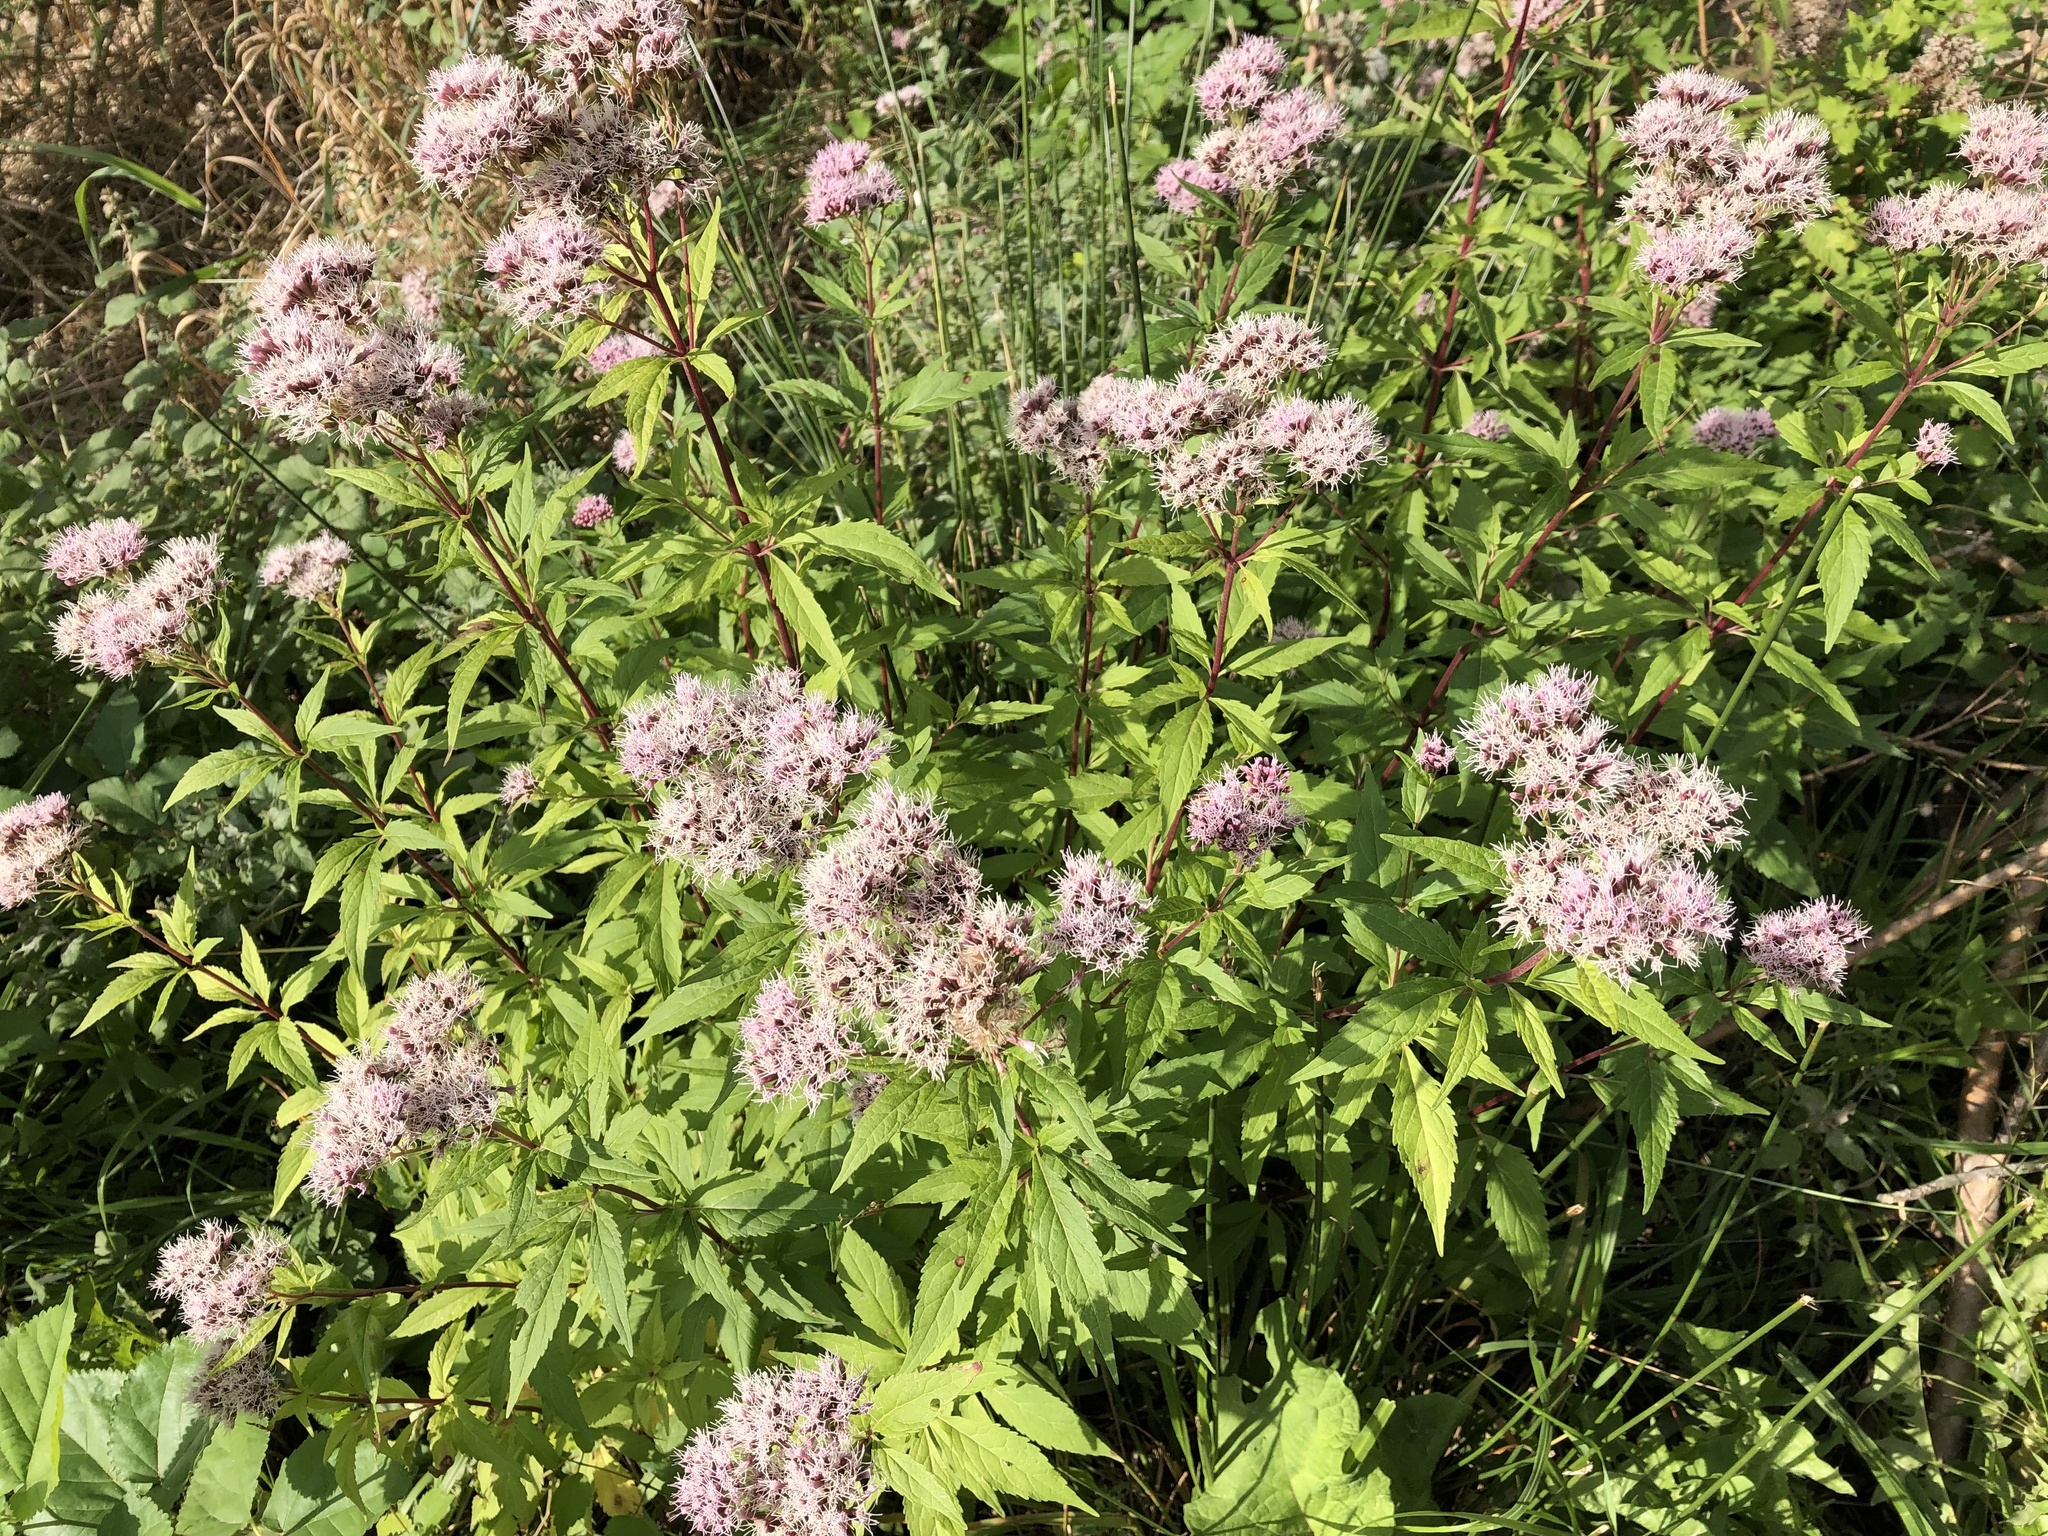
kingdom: Plantae
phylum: Tracheophyta
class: Magnoliopsida
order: Asterales
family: Asteraceae
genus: Eupatorium
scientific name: Eupatorium cannabinum
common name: Hemp-agrimony
